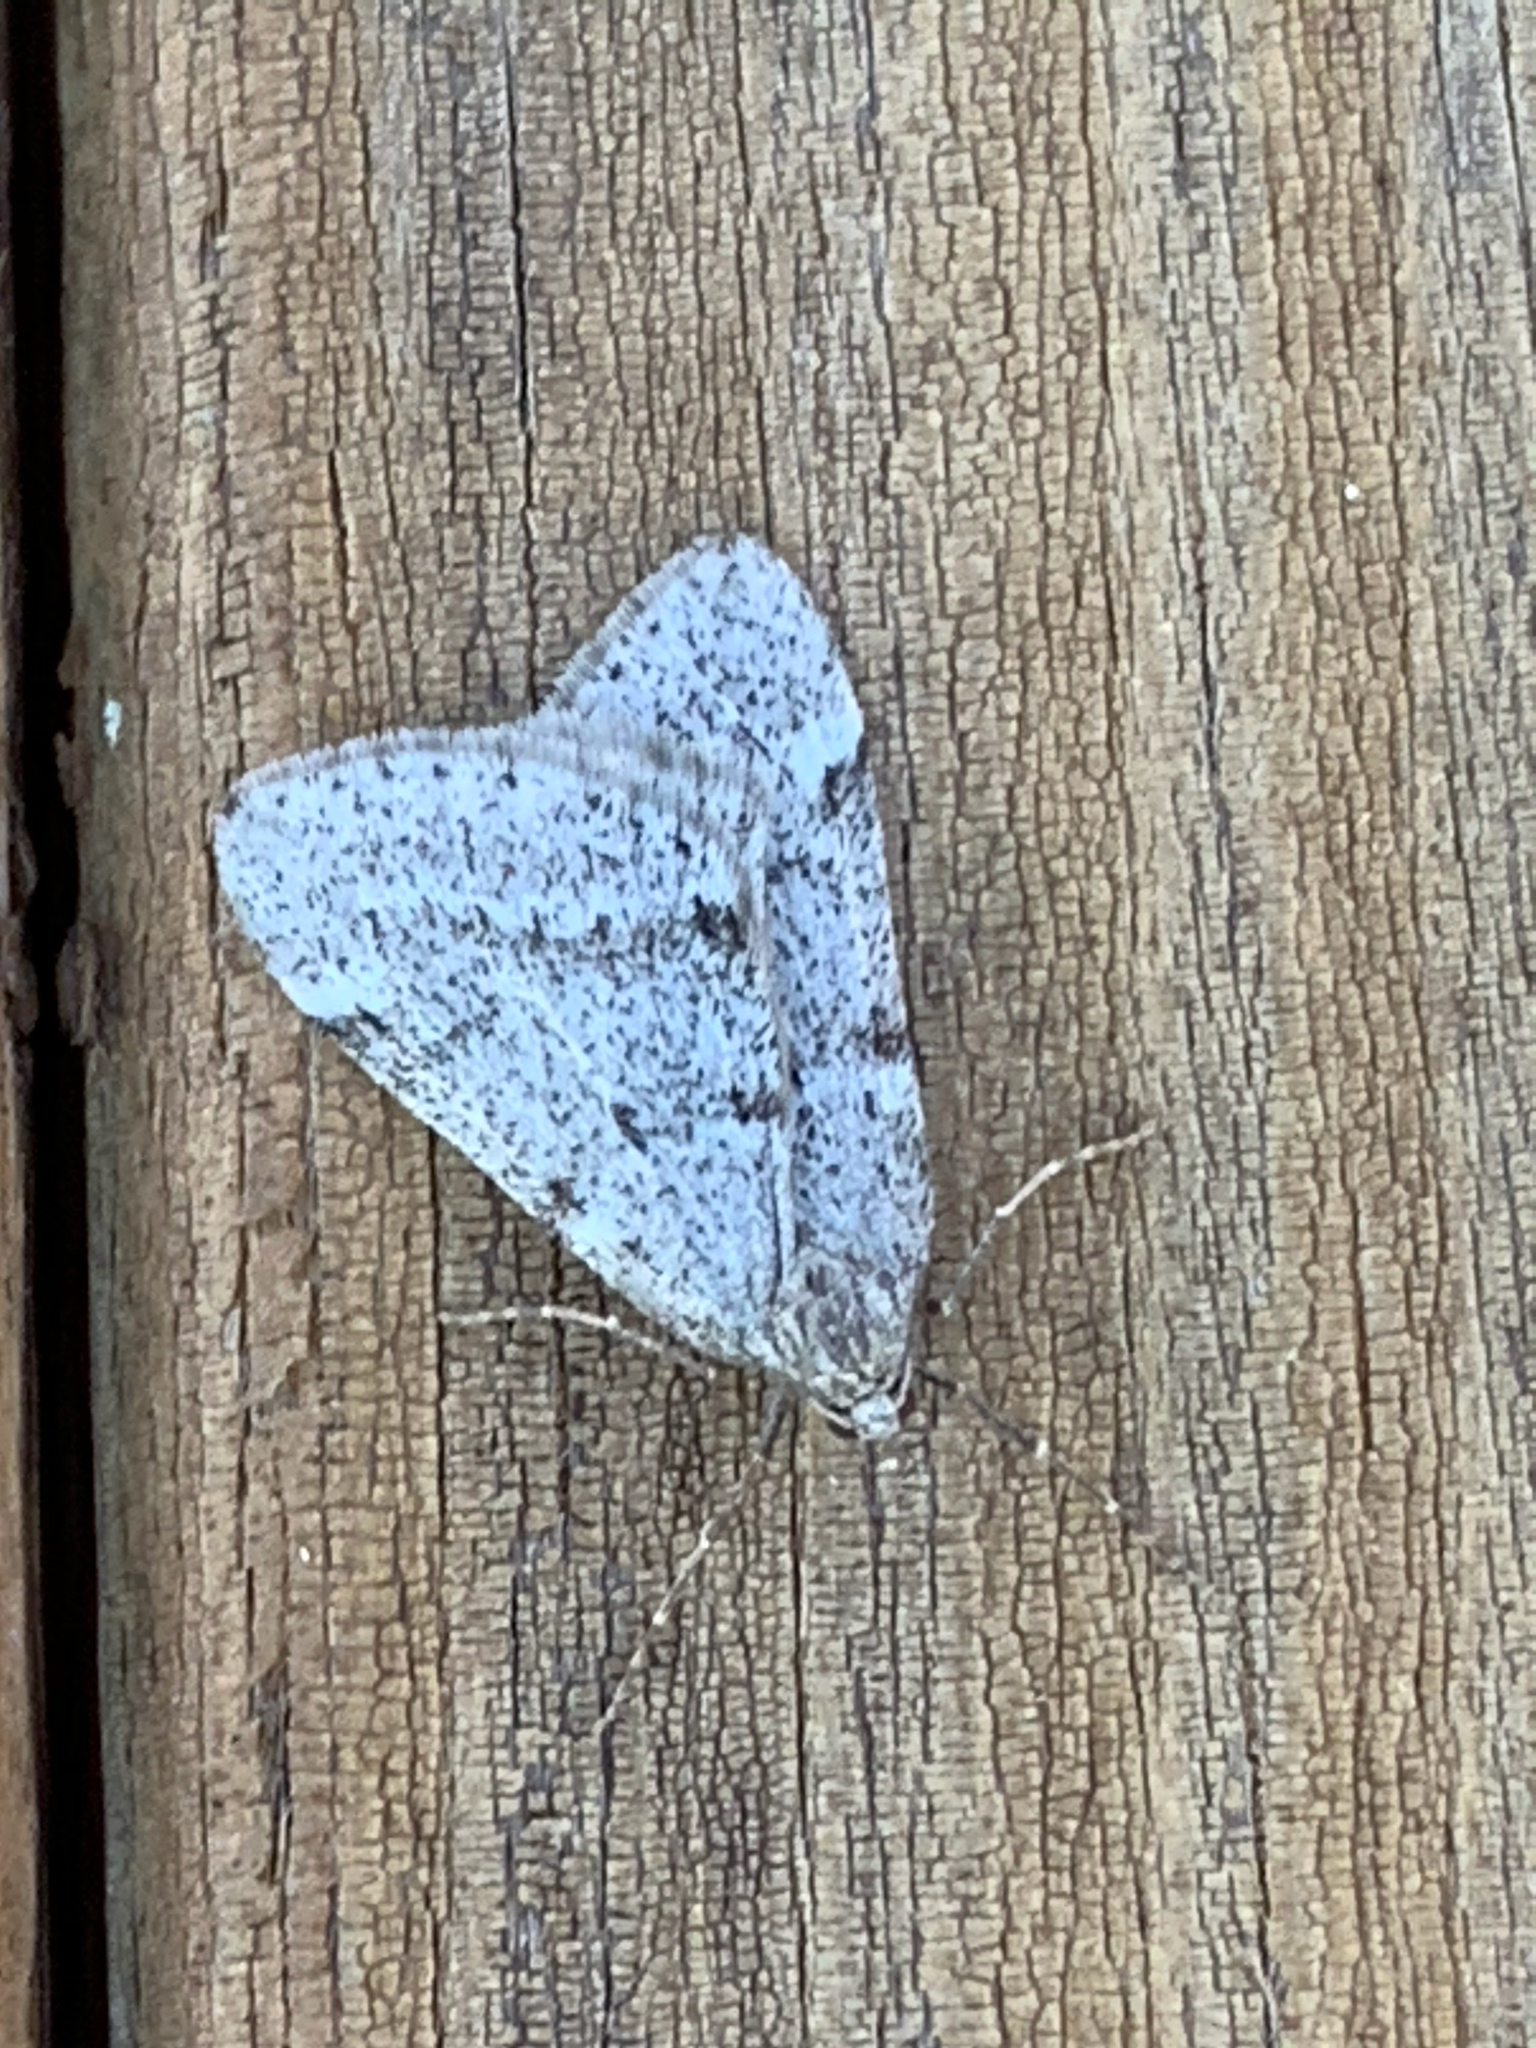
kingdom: Animalia
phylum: Arthropoda
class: Insecta
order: Lepidoptera
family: Geometridae
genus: Alsophila
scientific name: Alsophila pometaria
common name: Fall cankerworm
